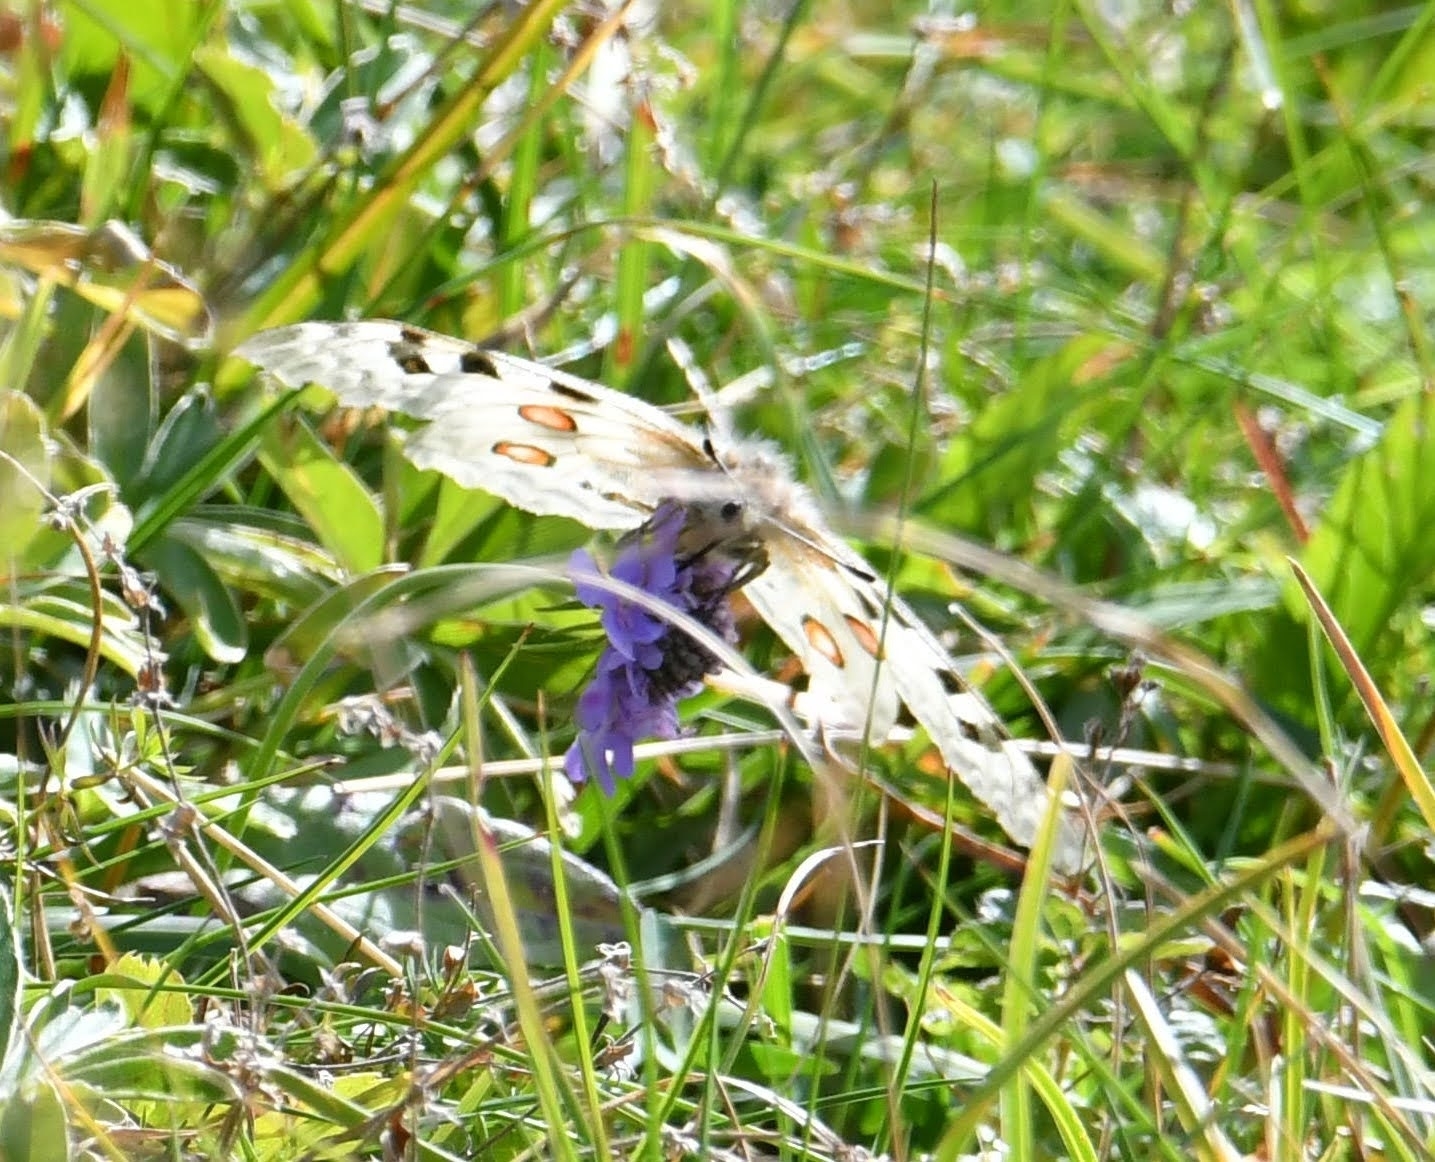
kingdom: Animalia
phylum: Arthropoda
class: Insecta
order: Lepidoptera
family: Papilionidae
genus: Parnassius
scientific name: Parnassius apollo
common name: Apollo
